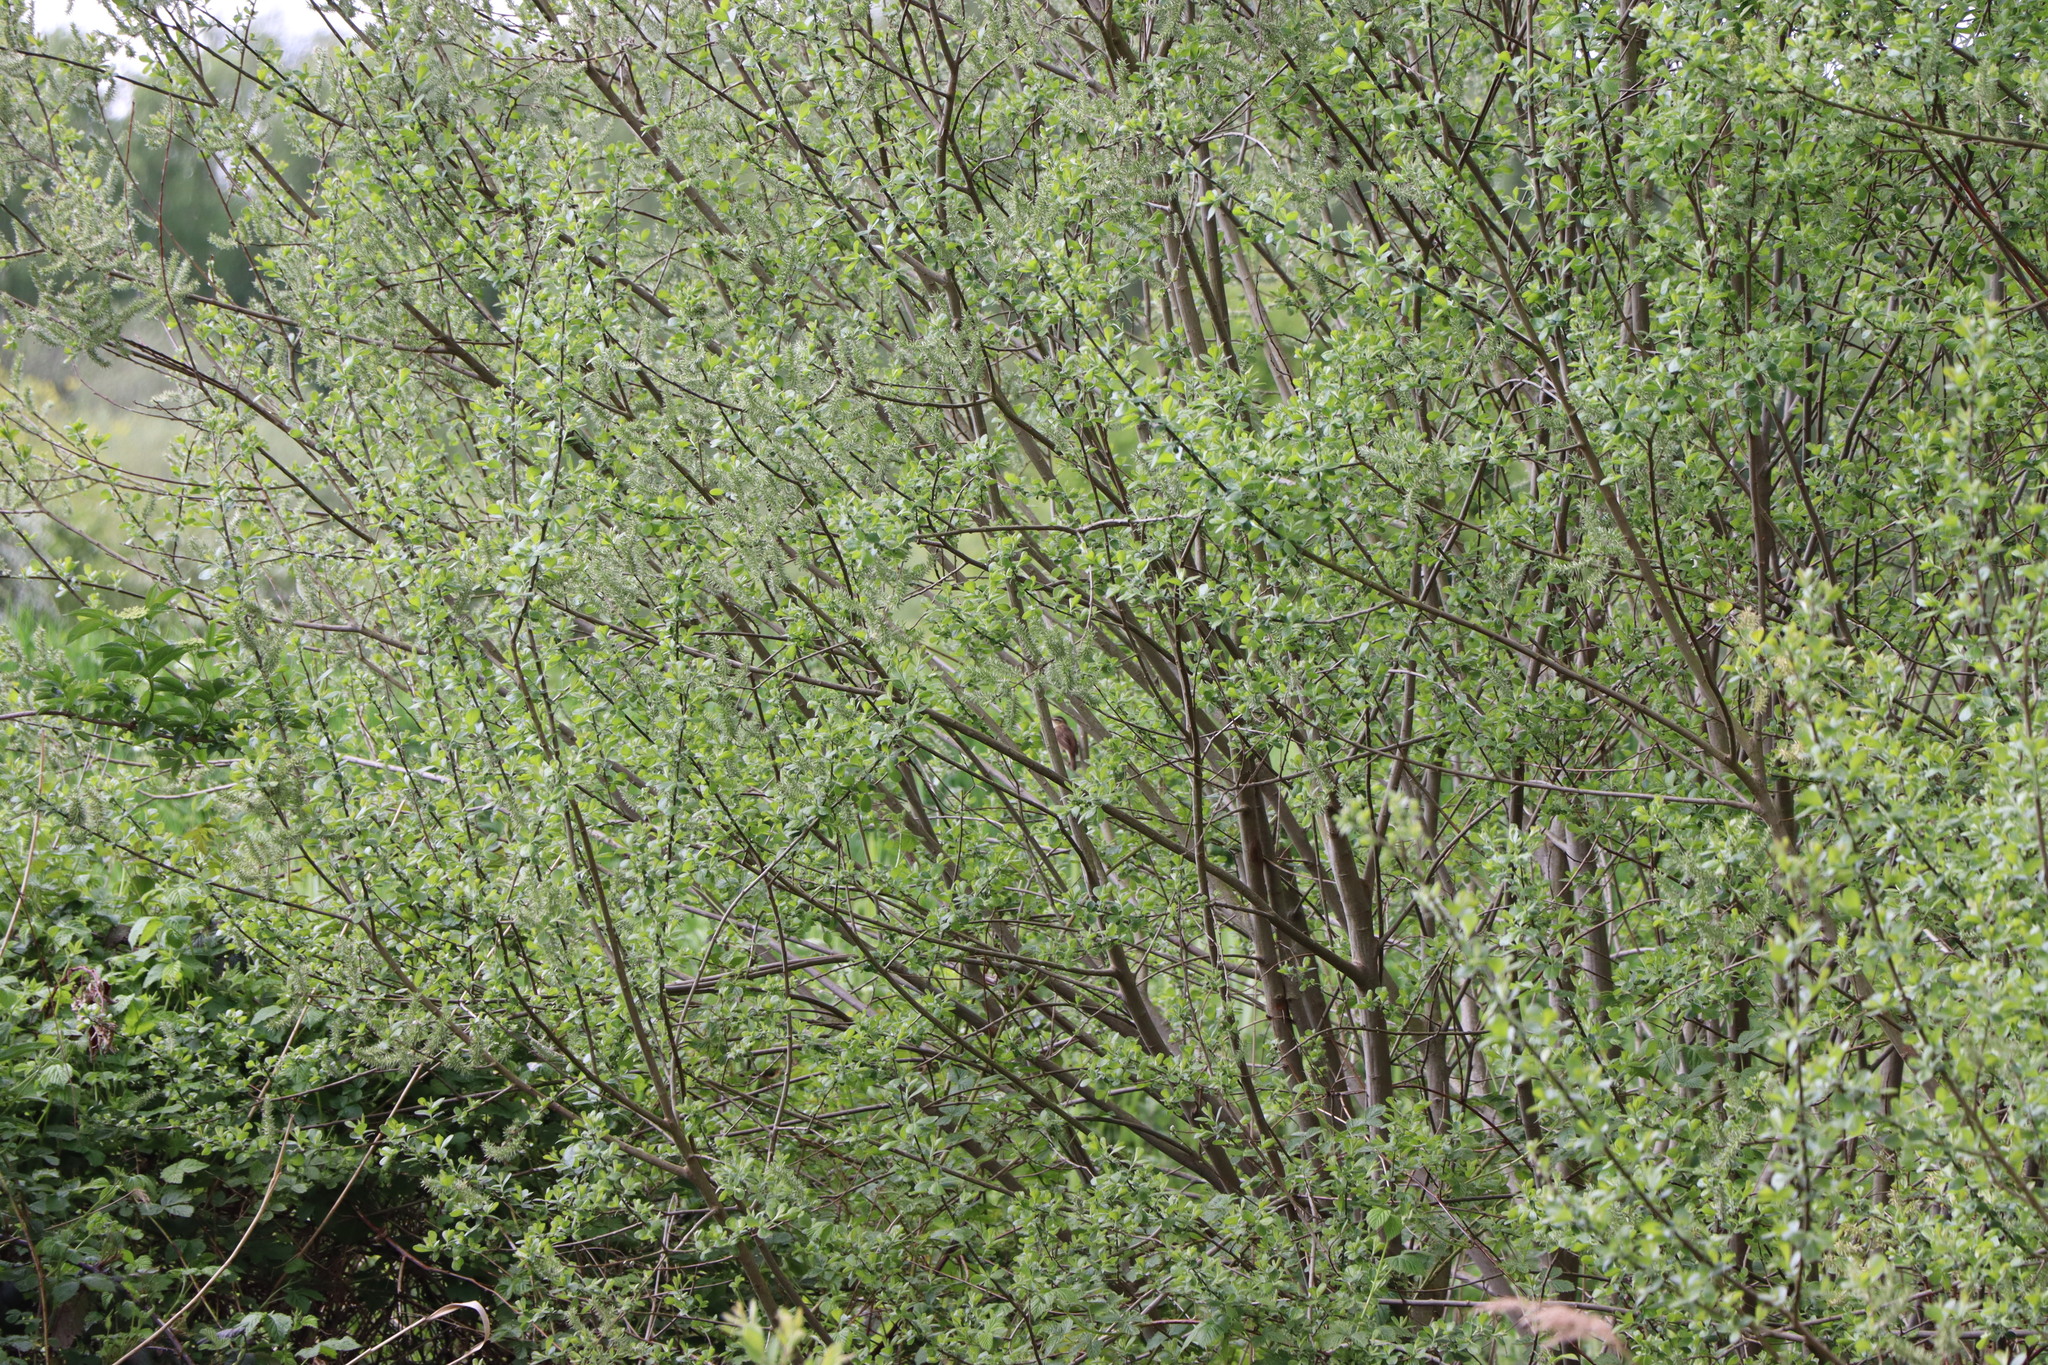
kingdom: Animalia
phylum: Chordata
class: Aves
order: Passeriformes
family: Acrocephalidae
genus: Acrocephalus
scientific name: Acrocephalus schoenobaenus
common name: Sedge warbler
